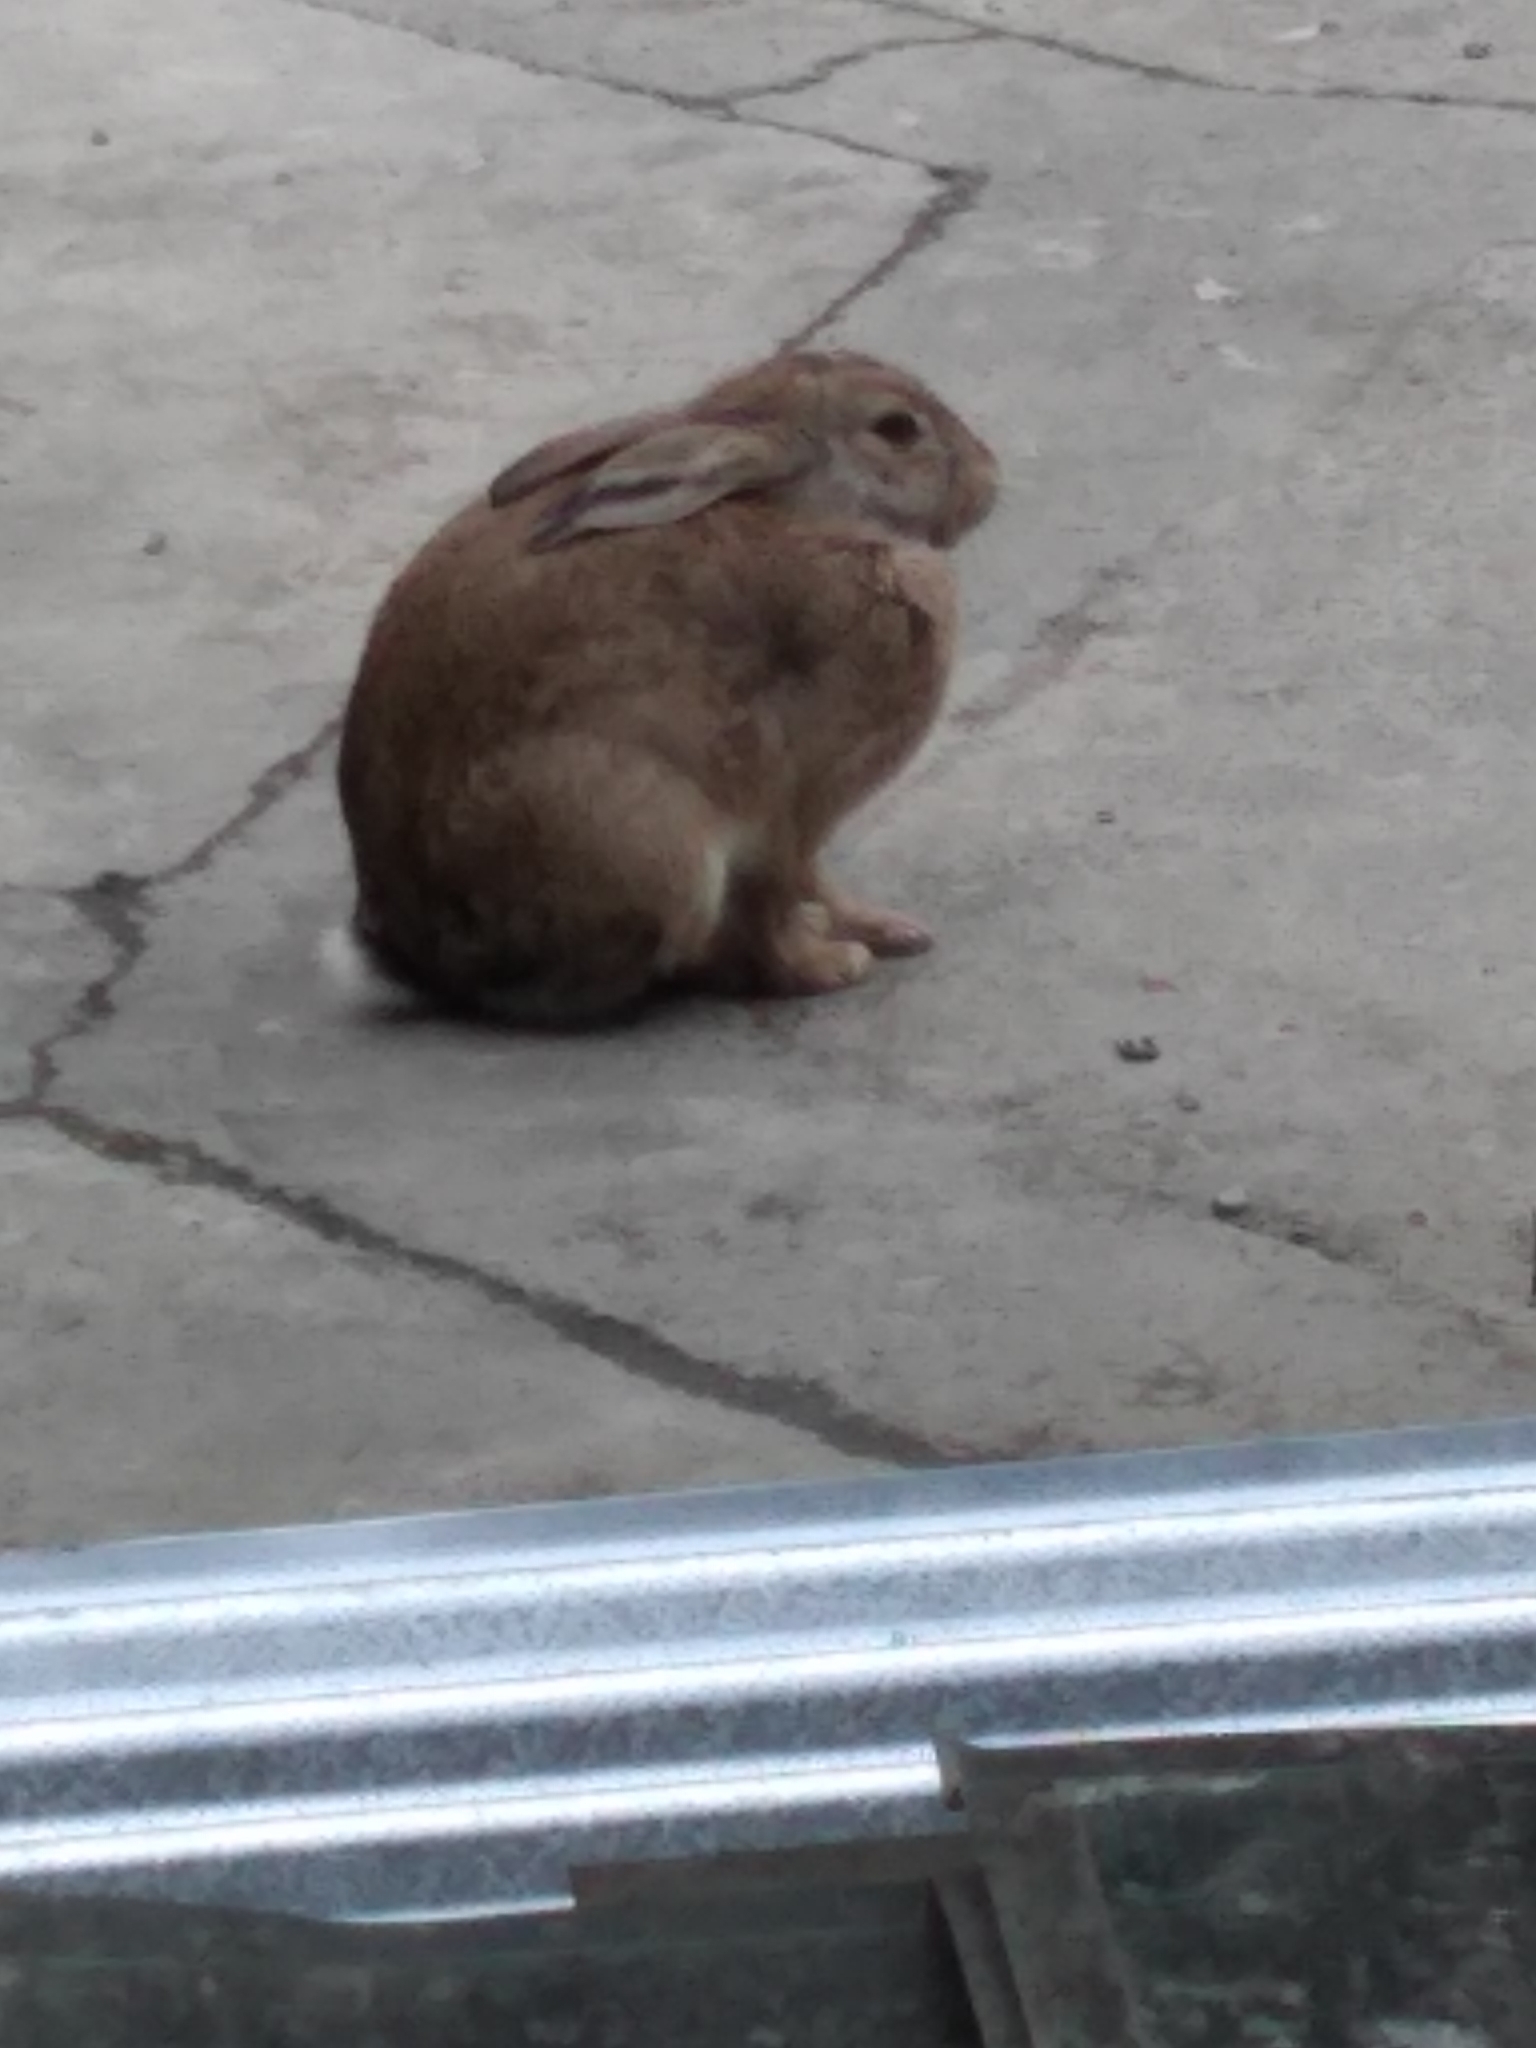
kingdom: Animalia
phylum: Chordata
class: Mammalia
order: Lagomorpha
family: Leporidae
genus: Oryctolagus
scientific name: Oryctolagus cuniculus
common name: European rabbit
